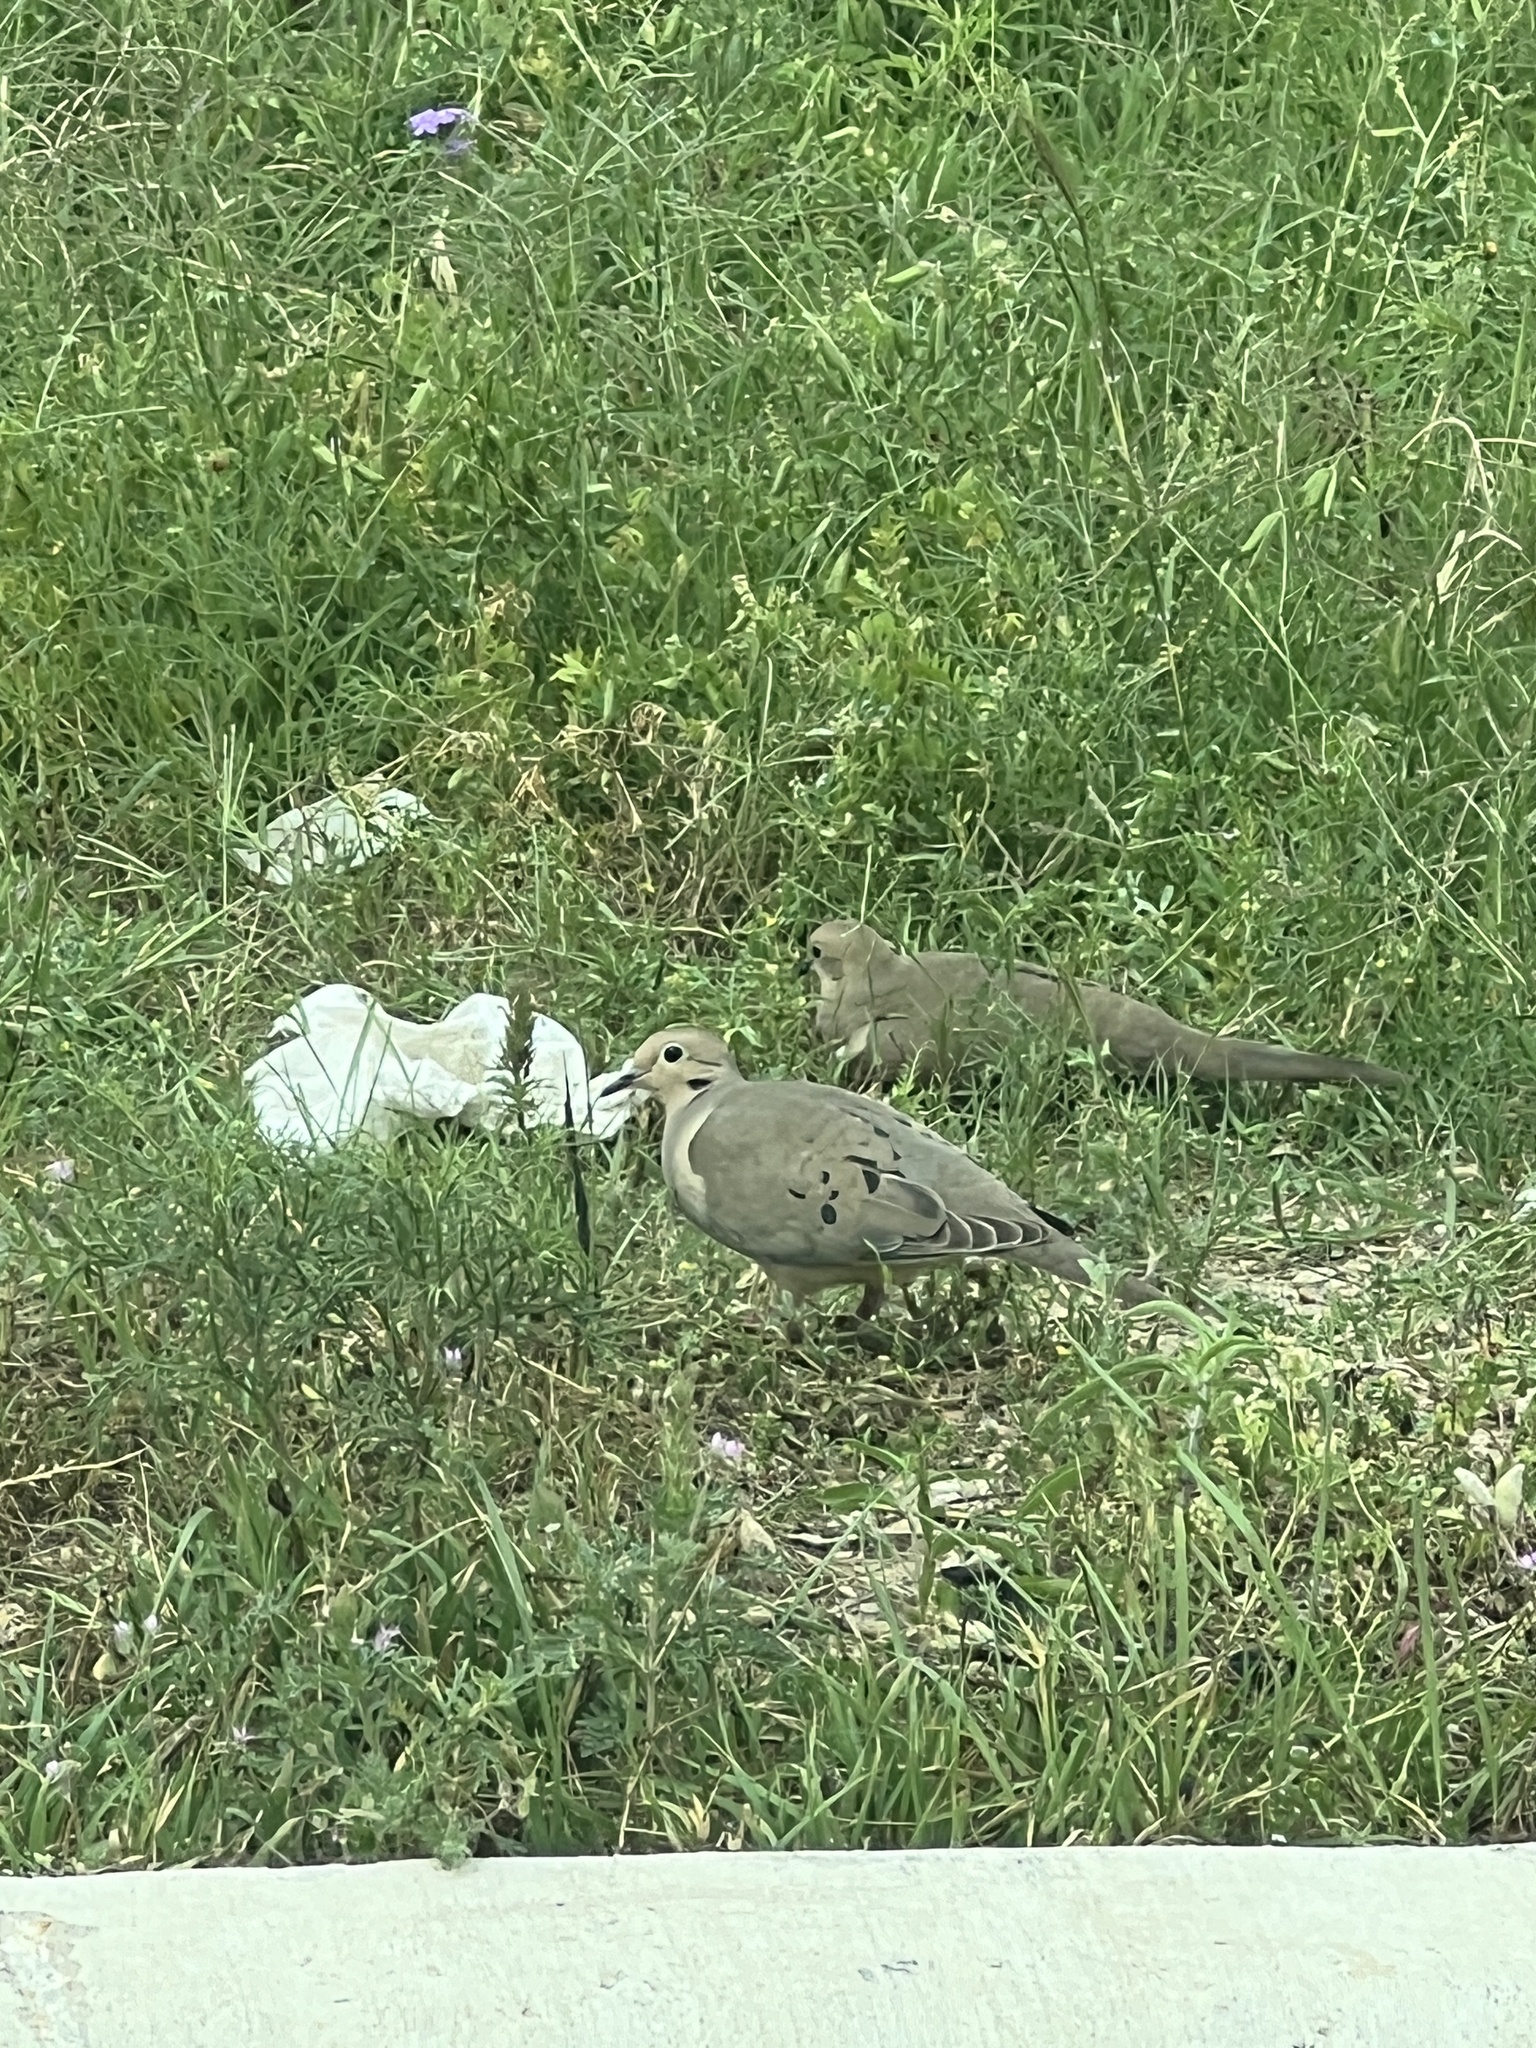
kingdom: Animalia
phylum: Chordata
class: Aves
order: Columbiformes
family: Columbidae
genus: Zenaida
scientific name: Zenaida macroura
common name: Mourning dove
